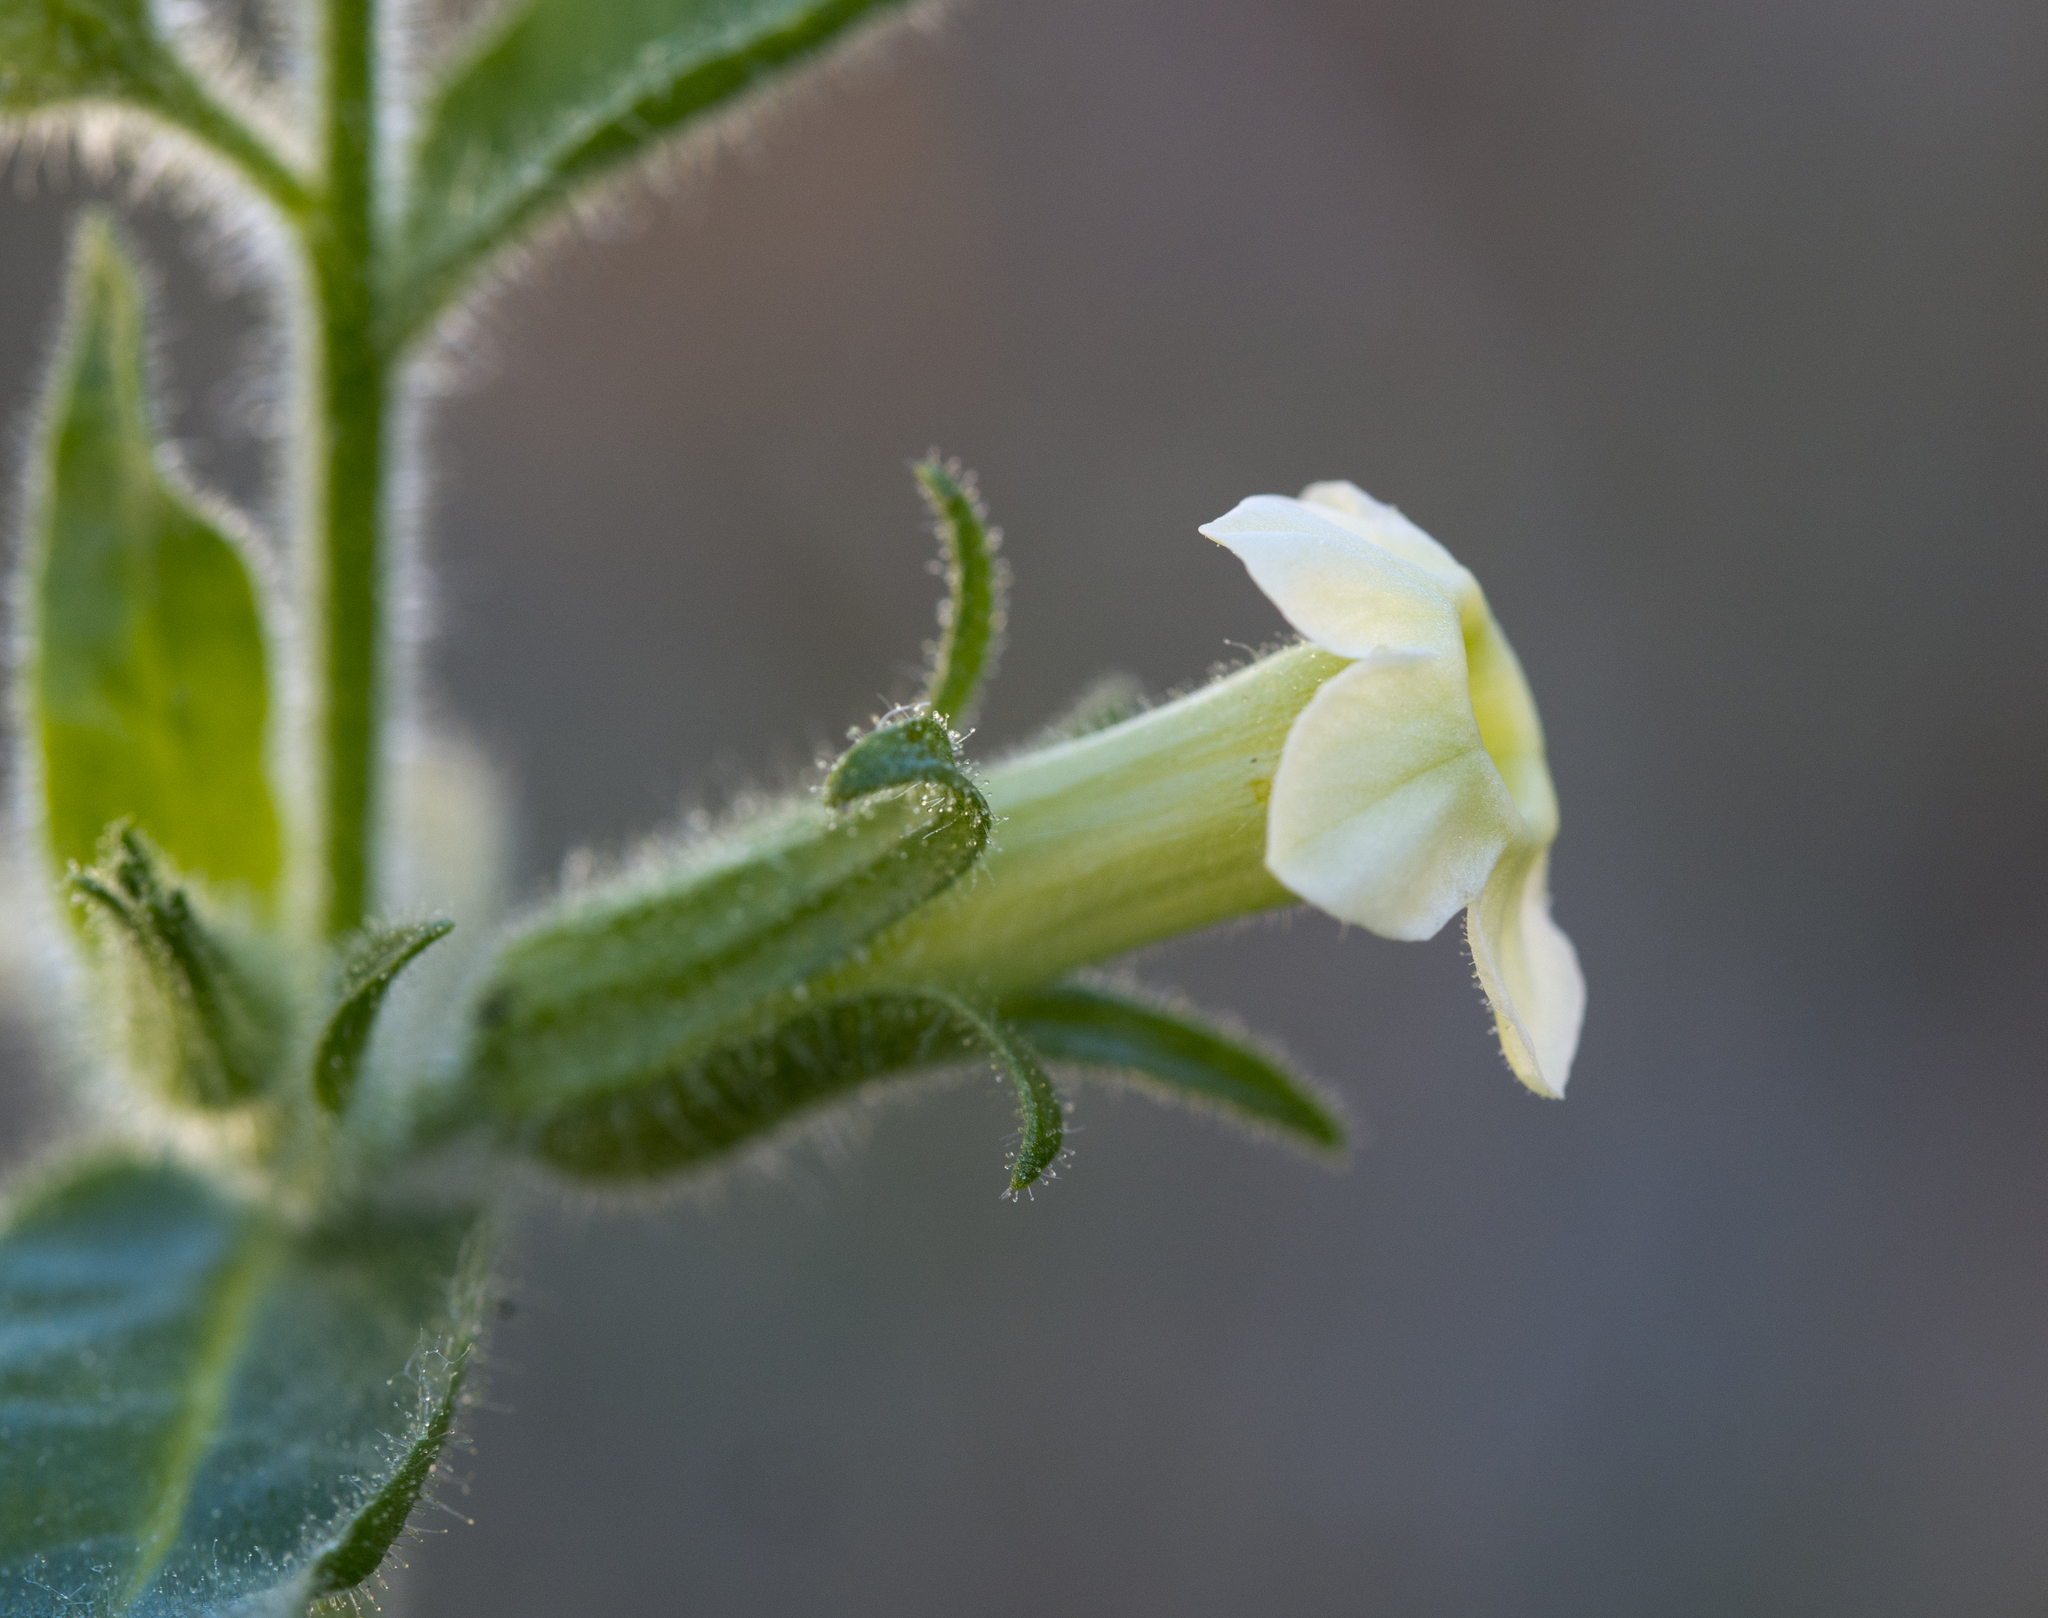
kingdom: Plantae
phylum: Tracheophyta
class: Magnoliopsida
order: Solanales
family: Solanaceae
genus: Nicotiana
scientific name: Nicotiana obtusifolia
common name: Desert tobacco
